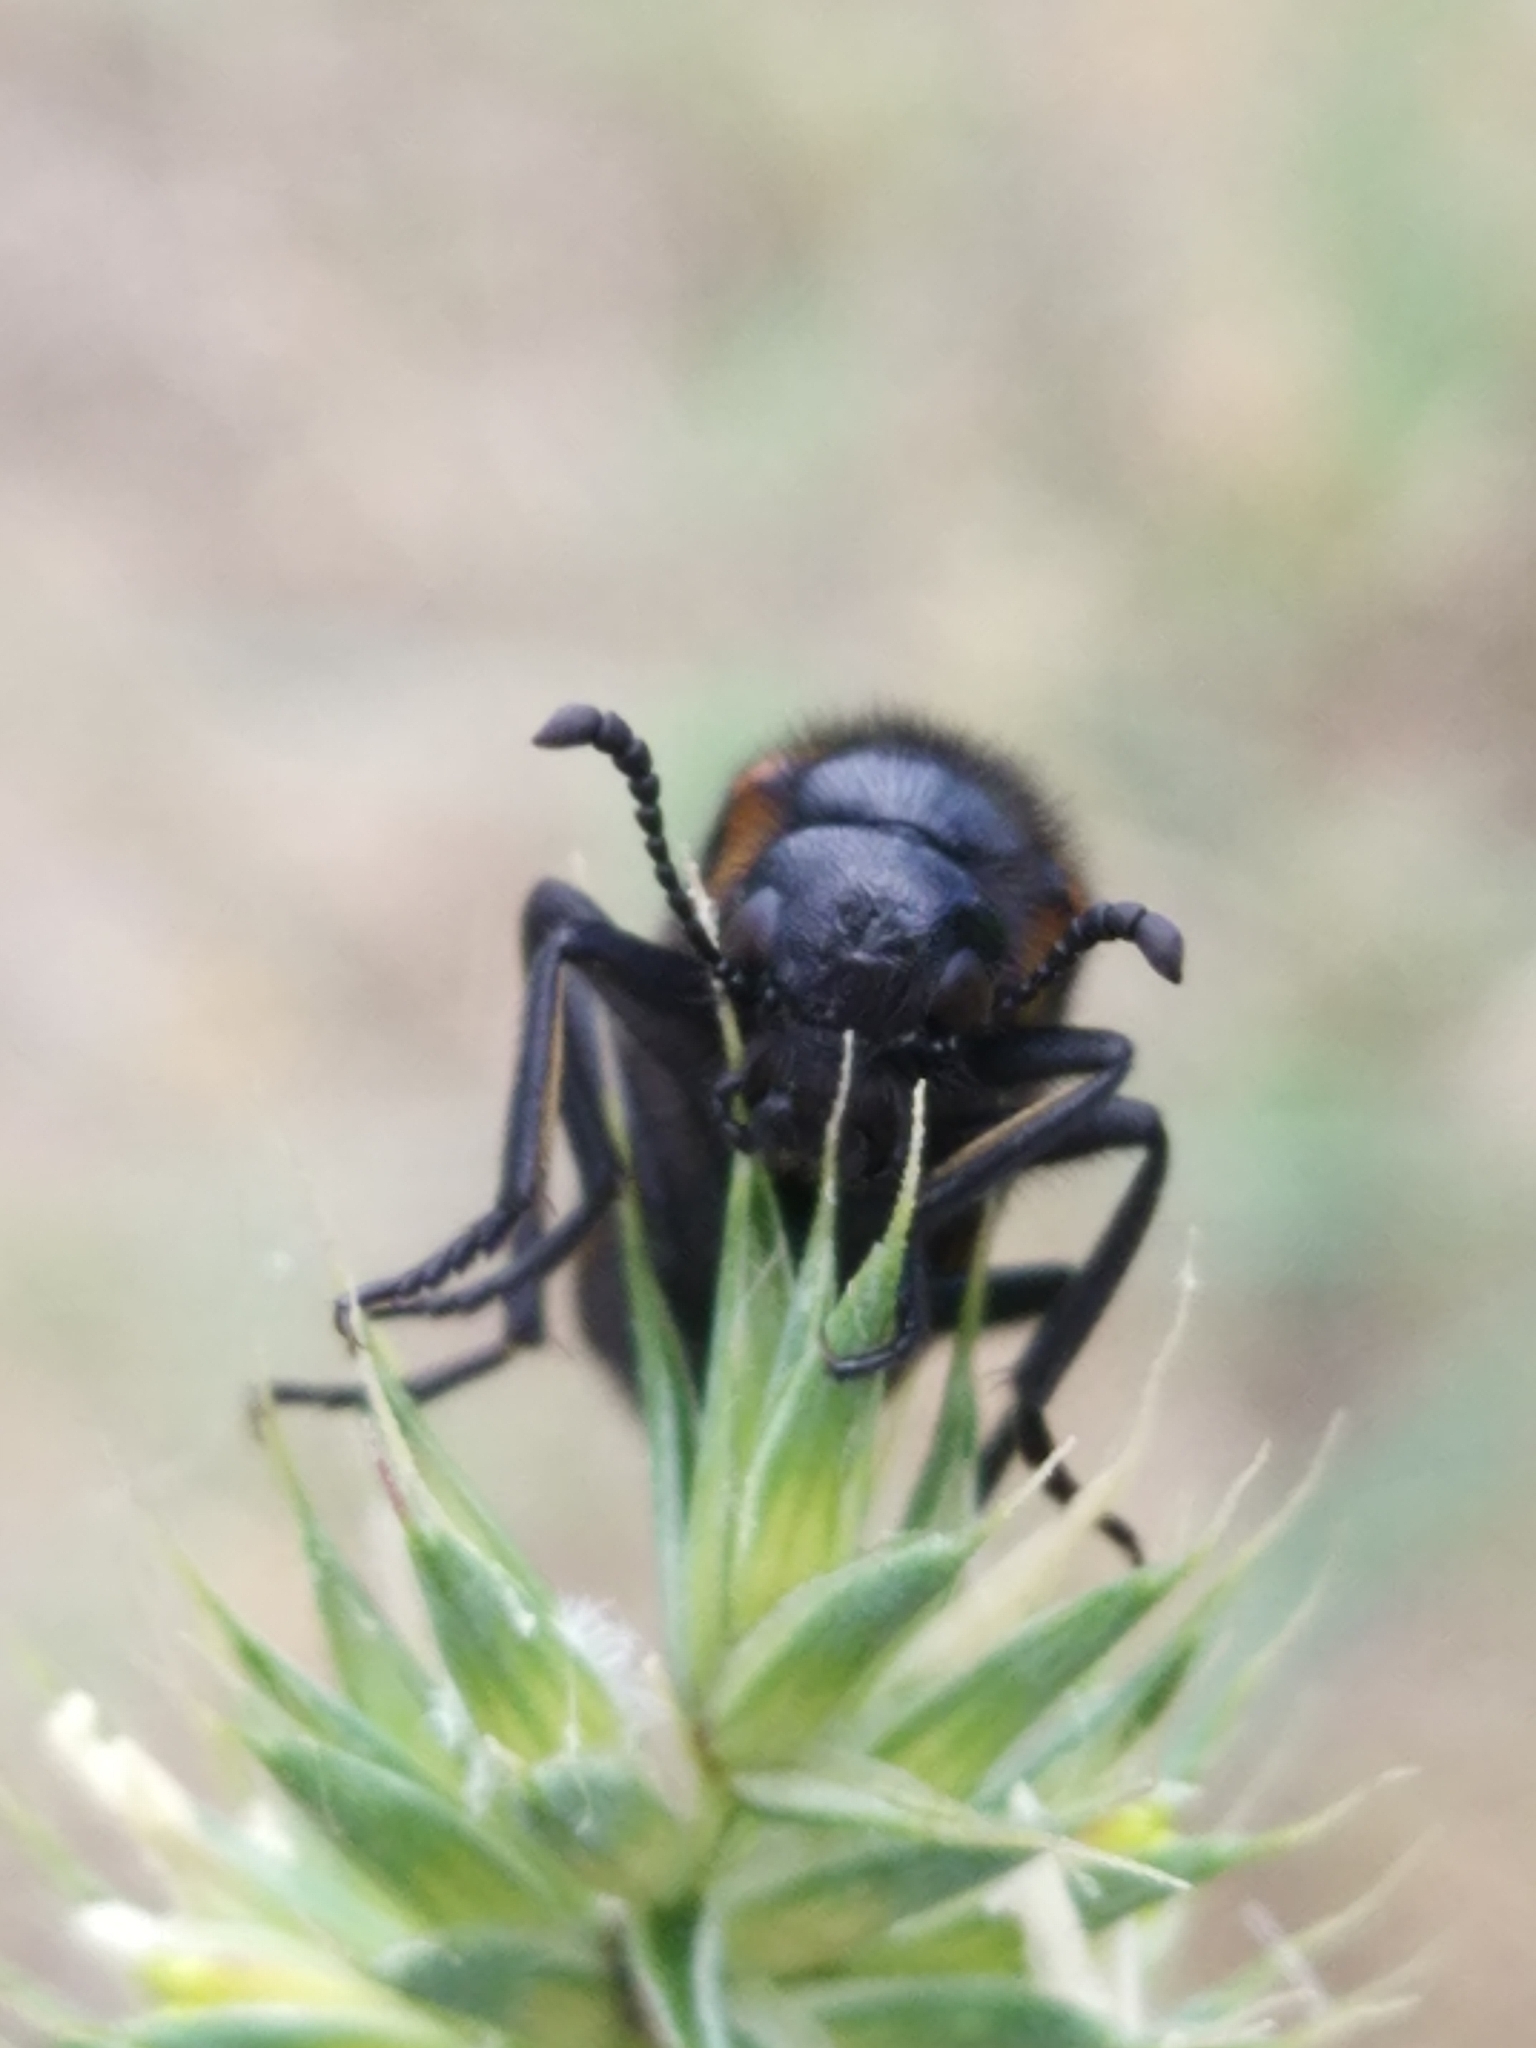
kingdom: Animalia
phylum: Arthropoda
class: Insecta
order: Coleoptera
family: Meloidae
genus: Mylabris
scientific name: Mylabris variabilis
